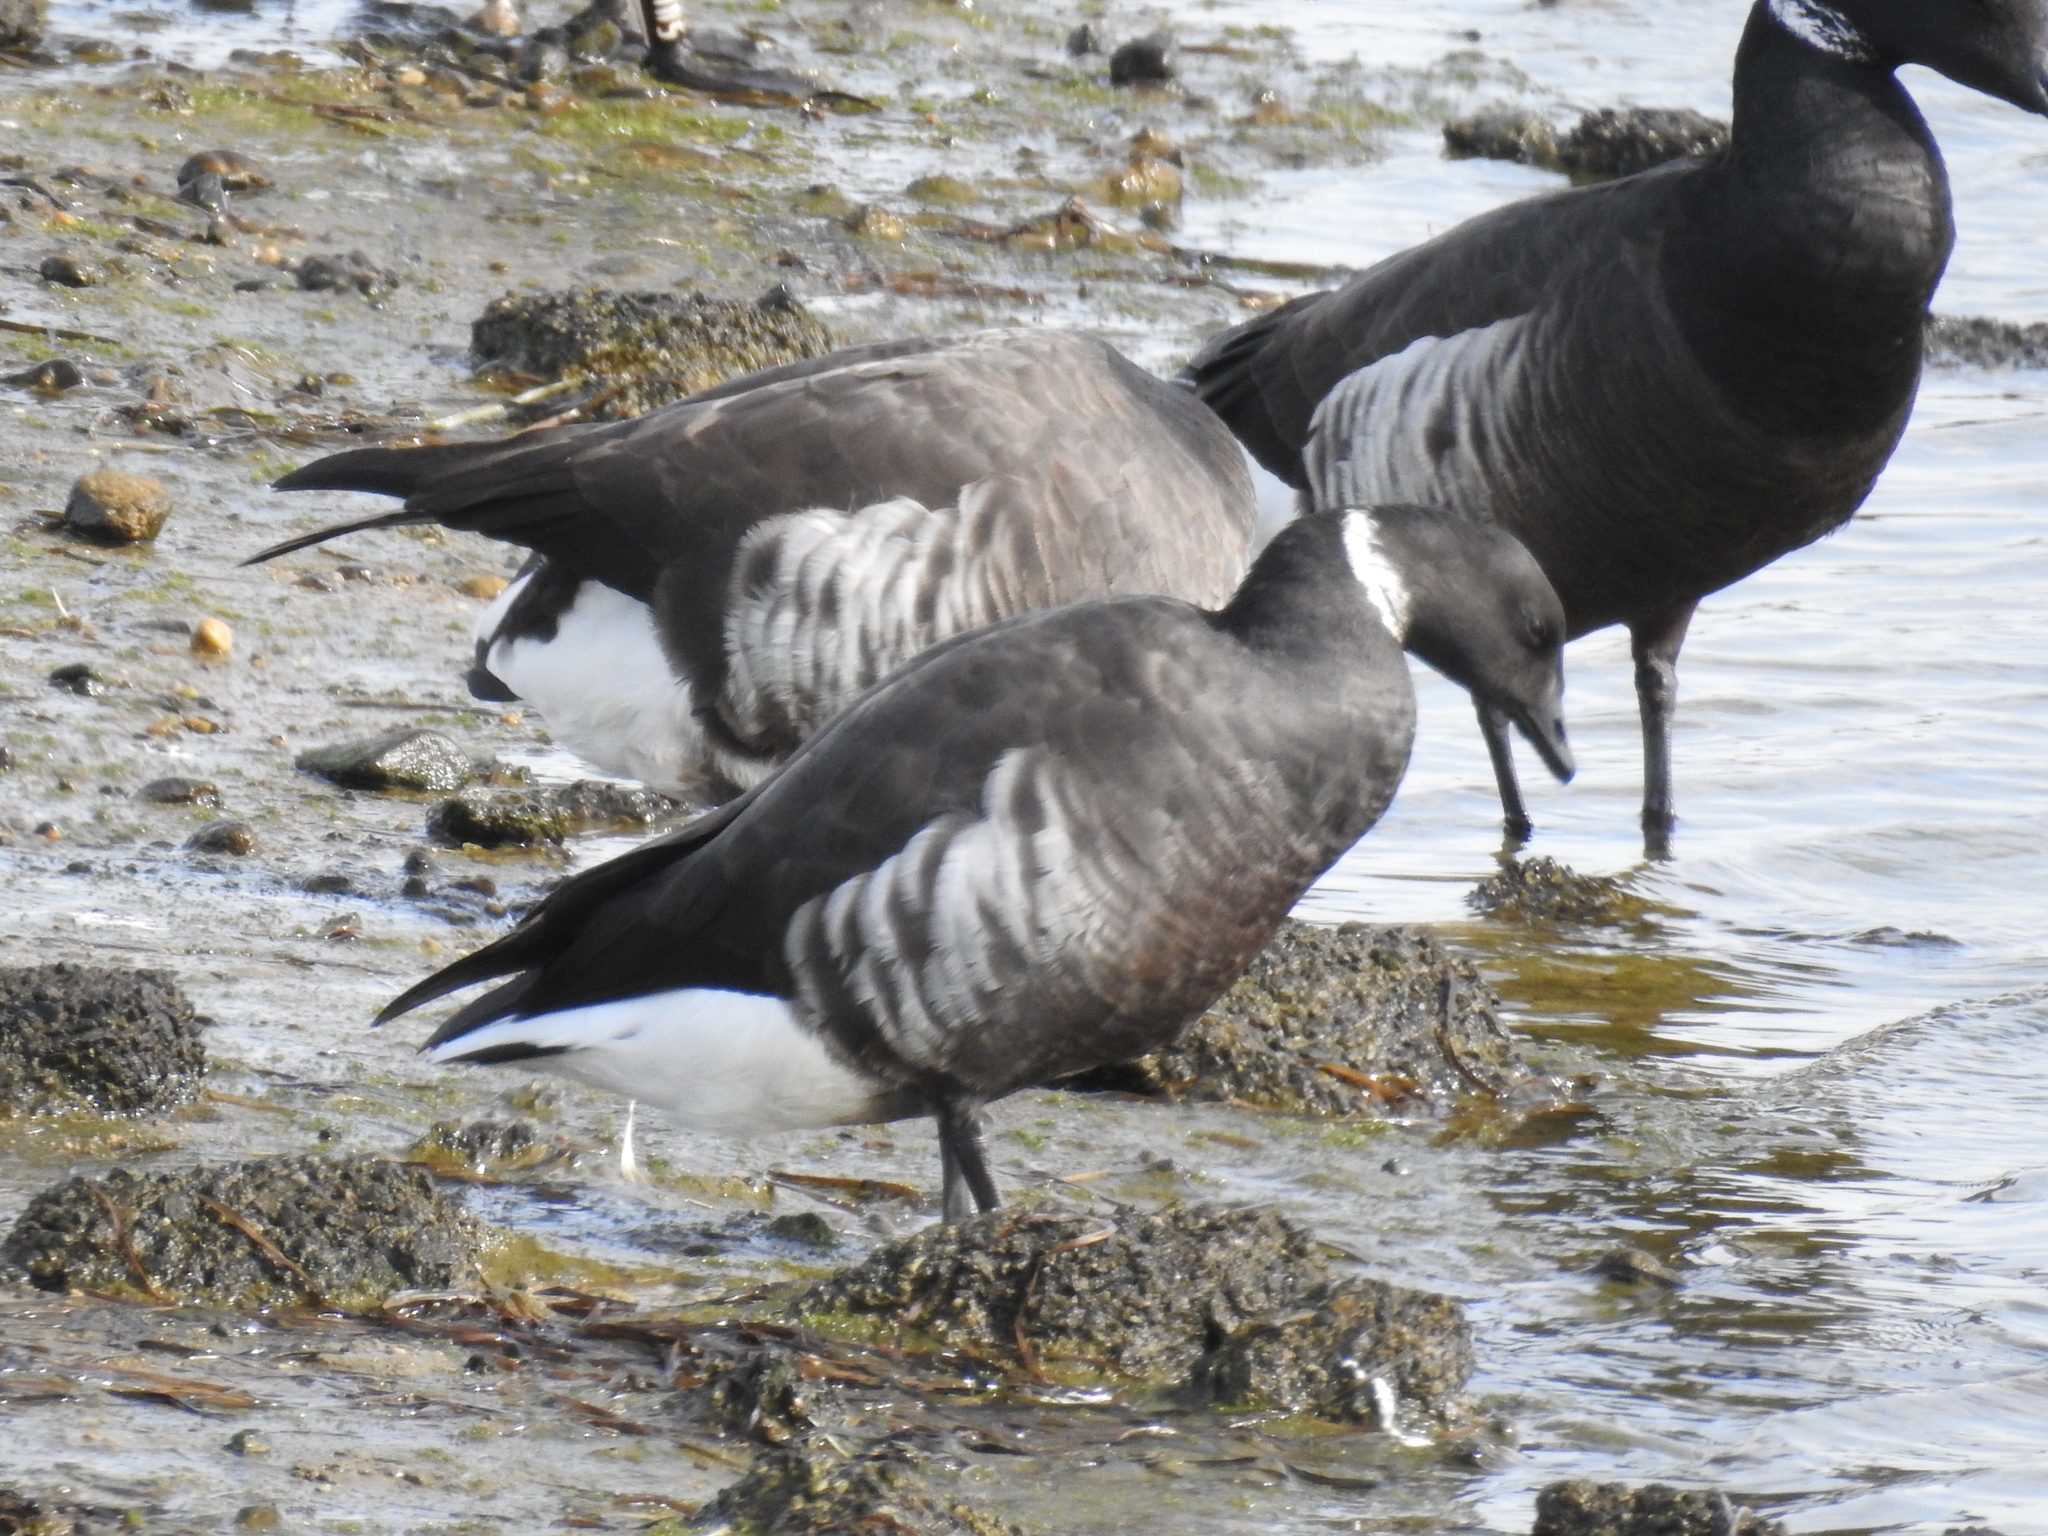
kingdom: Animalia
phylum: Chordata
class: Aves
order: Anseriformes
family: Anatidae
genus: Branta
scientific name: Branta bernicla
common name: Brant goose
